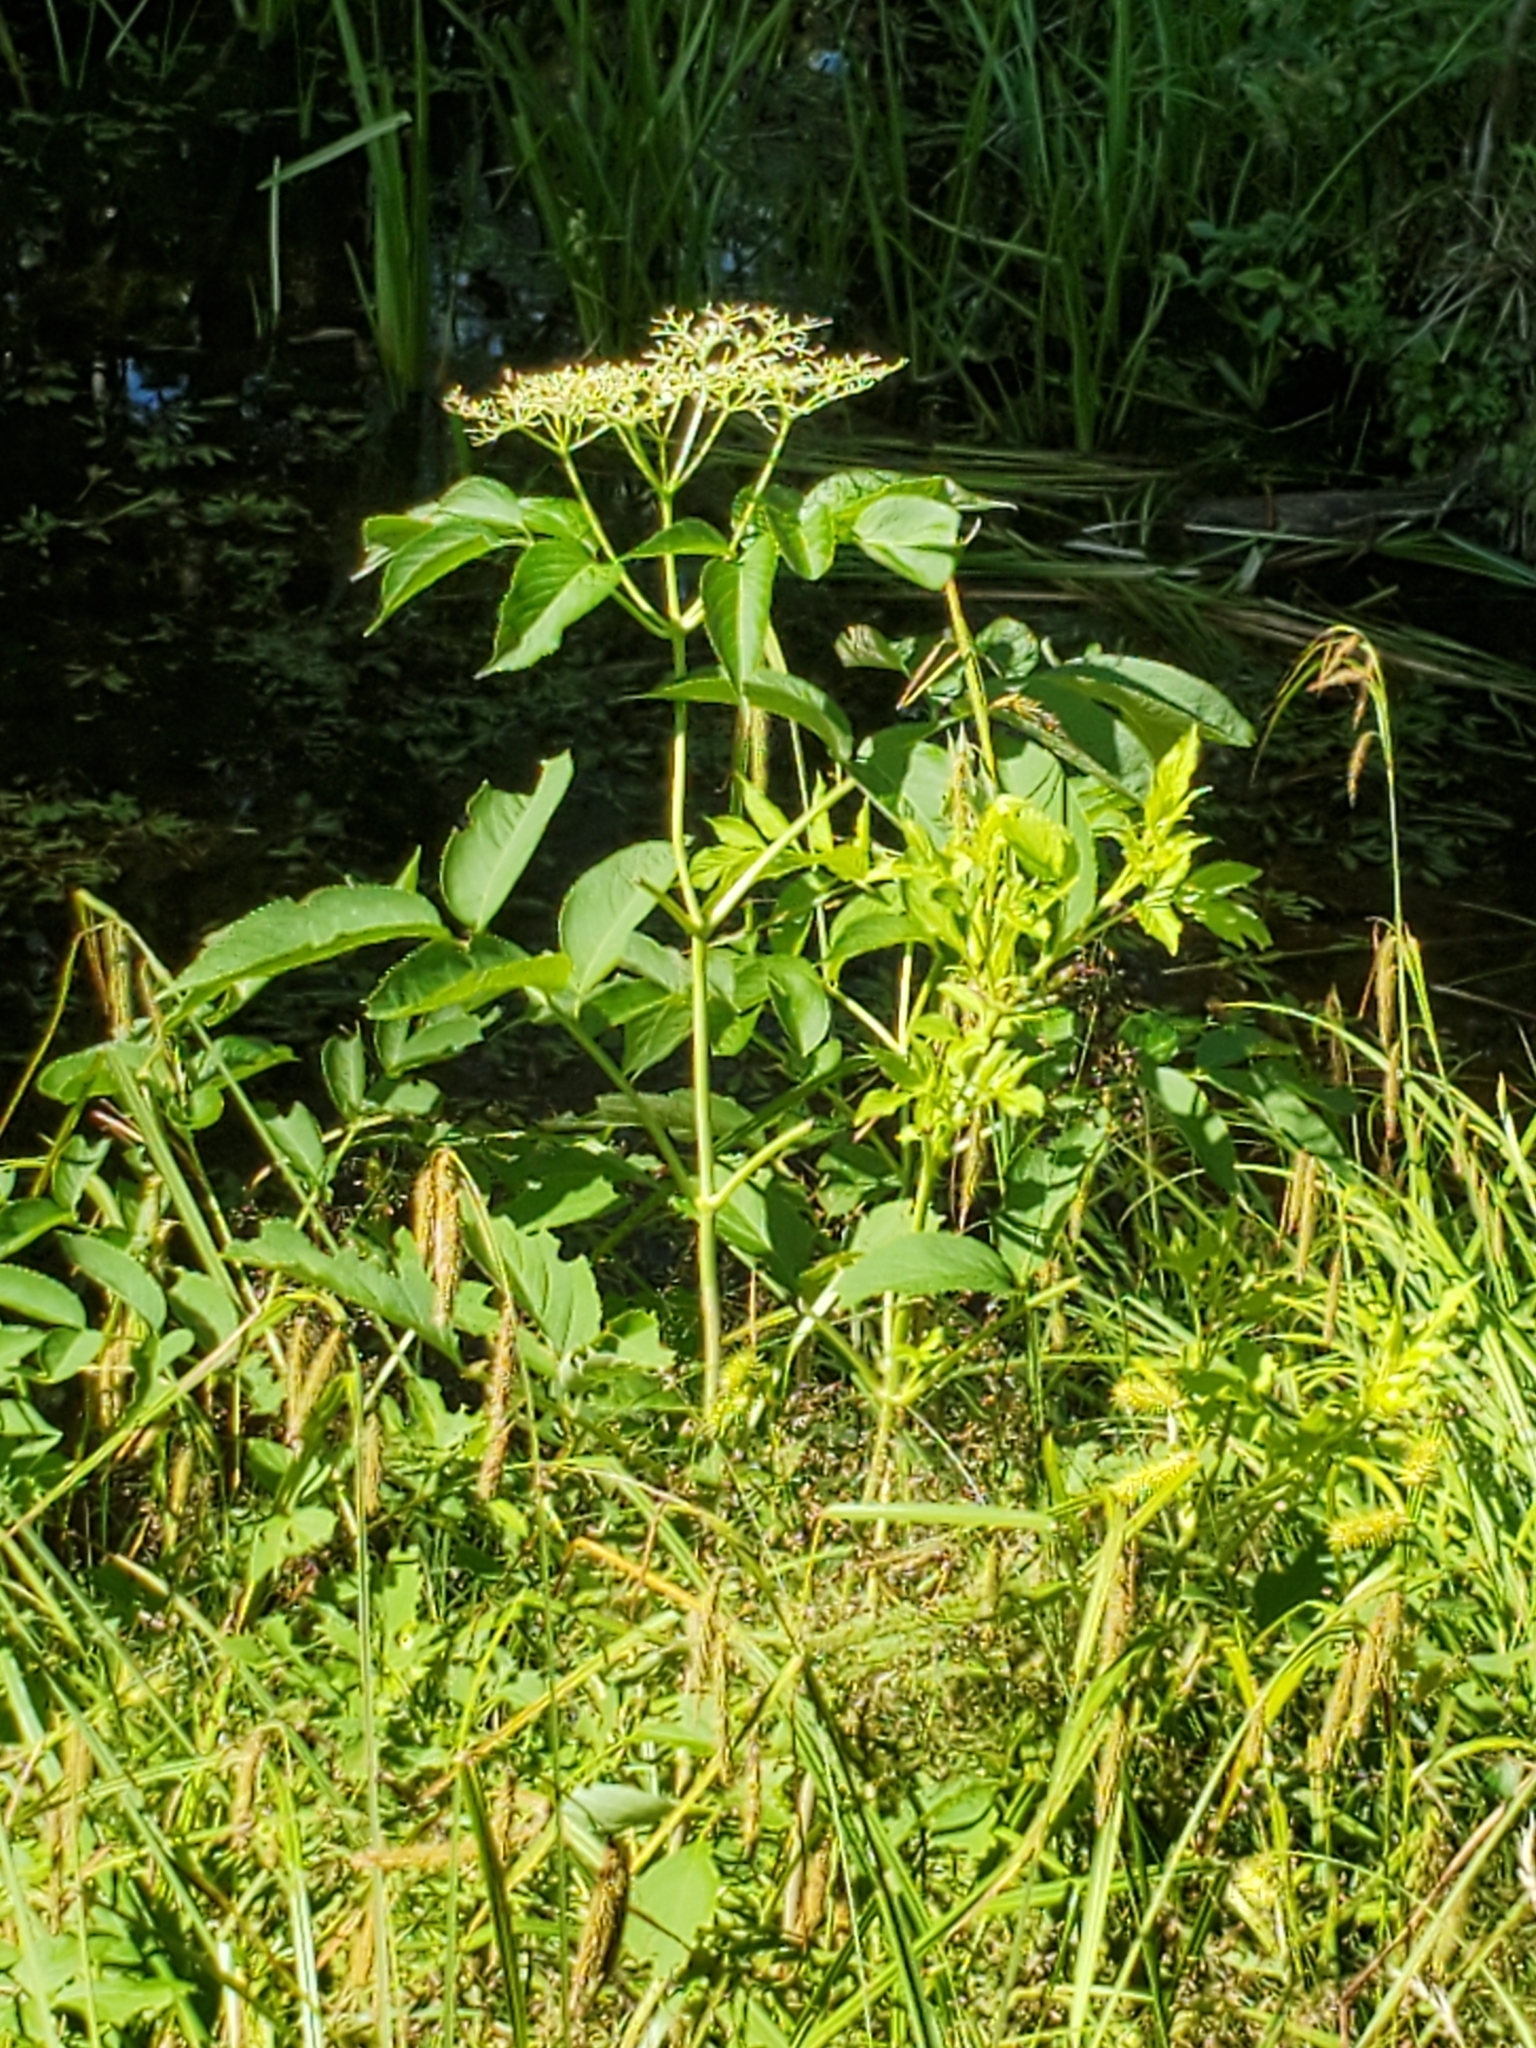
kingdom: Plantae
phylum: Tracheophyta
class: Magnoliopsida
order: Dipsacales
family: Viburnaceae
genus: Sambucus
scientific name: Sambucus canadensis
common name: American elder
